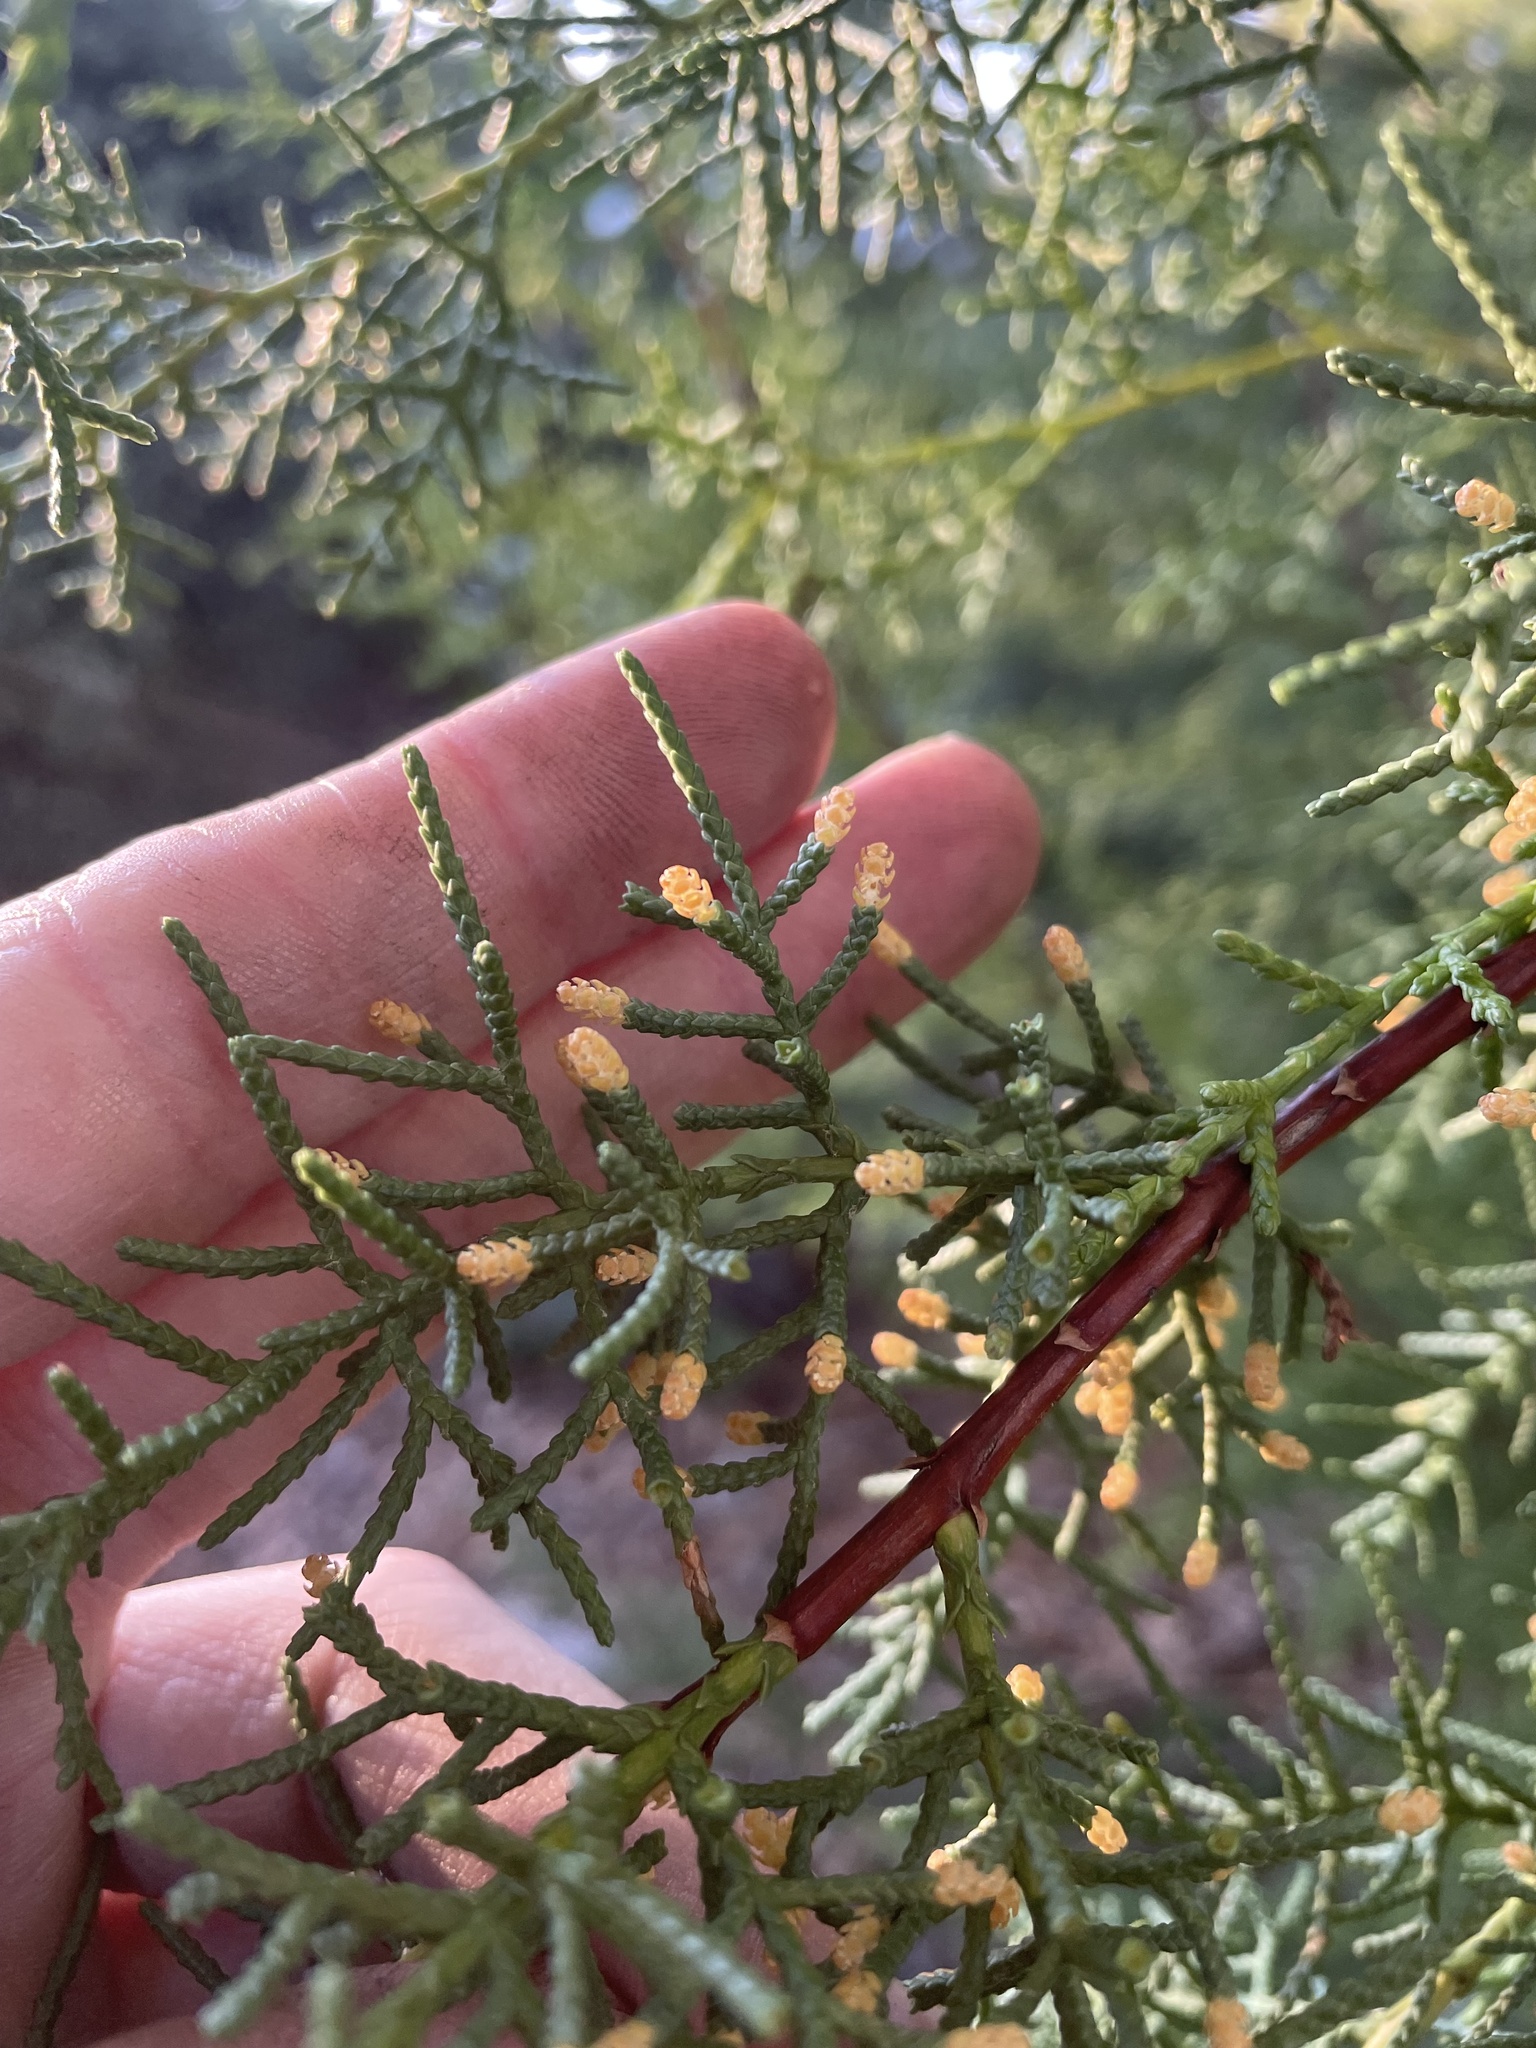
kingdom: Plantae
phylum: Tracheophyta
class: Pinopsida
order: Pinales
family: Cupressaceae
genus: Cupressus
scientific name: Cupressus goveniana
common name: Gowen cypress
